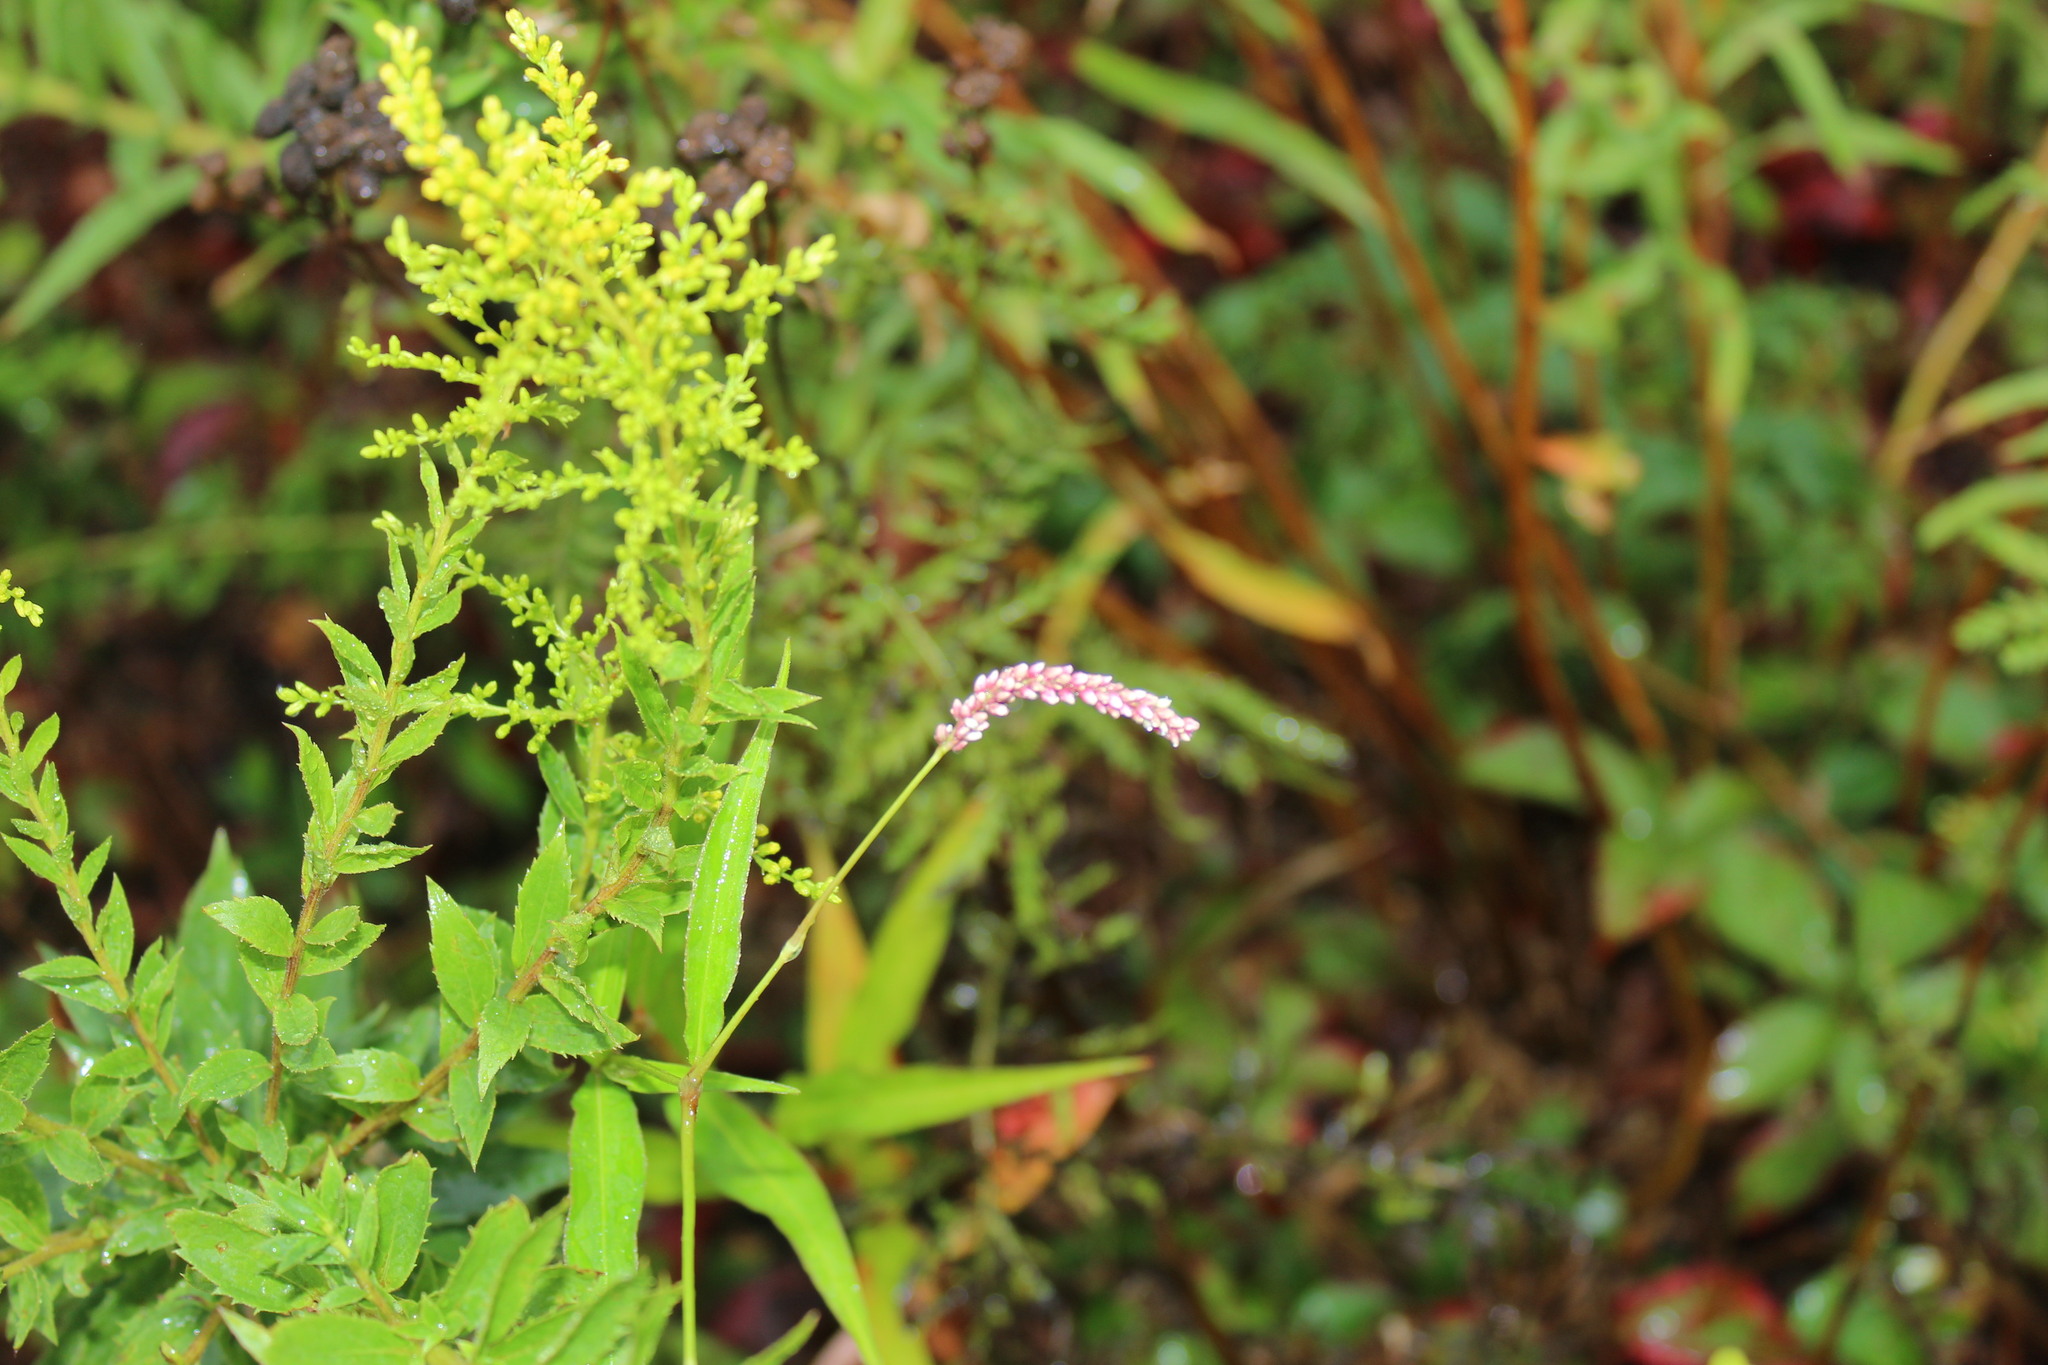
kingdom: Plantae
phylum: Tracheophyta
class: Magnoliopsida
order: Caryophyllales
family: Polygonaceae
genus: Persicaria
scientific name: Persicaria extremiorientalis
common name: Far-eastern smartweed
